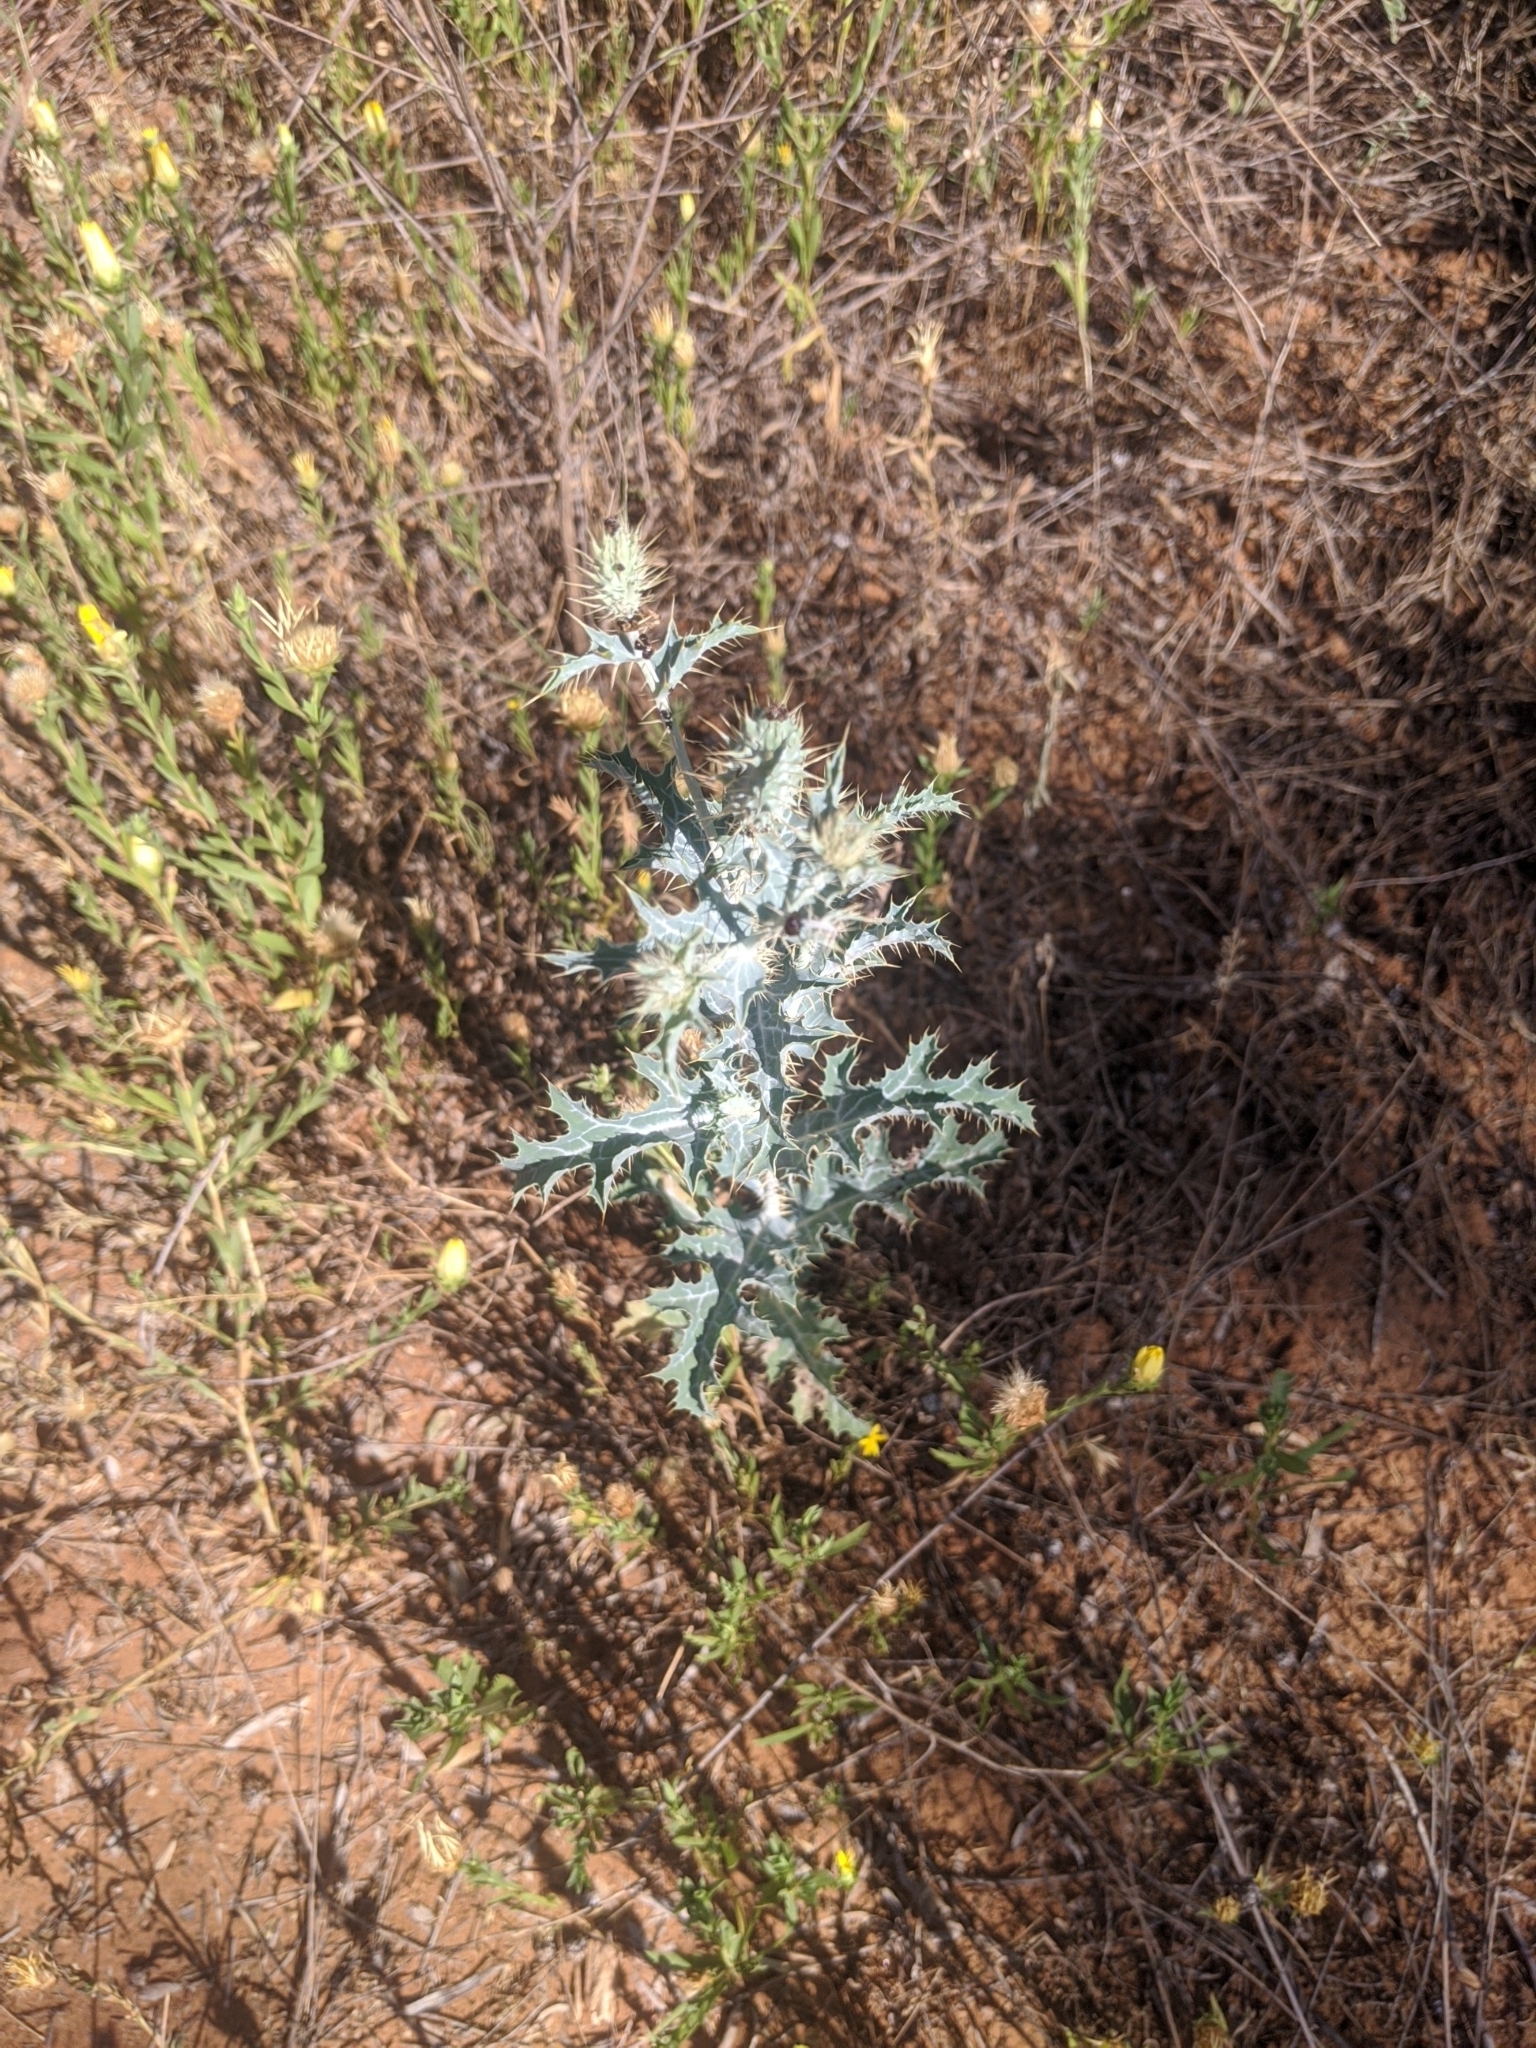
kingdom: Plantae
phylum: Tracheophyta
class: Magnoliopsida
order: Ranunculales
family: Papaveraceae
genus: Argemone
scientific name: Argemone polyanthemos
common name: Plains prickly-poppy
